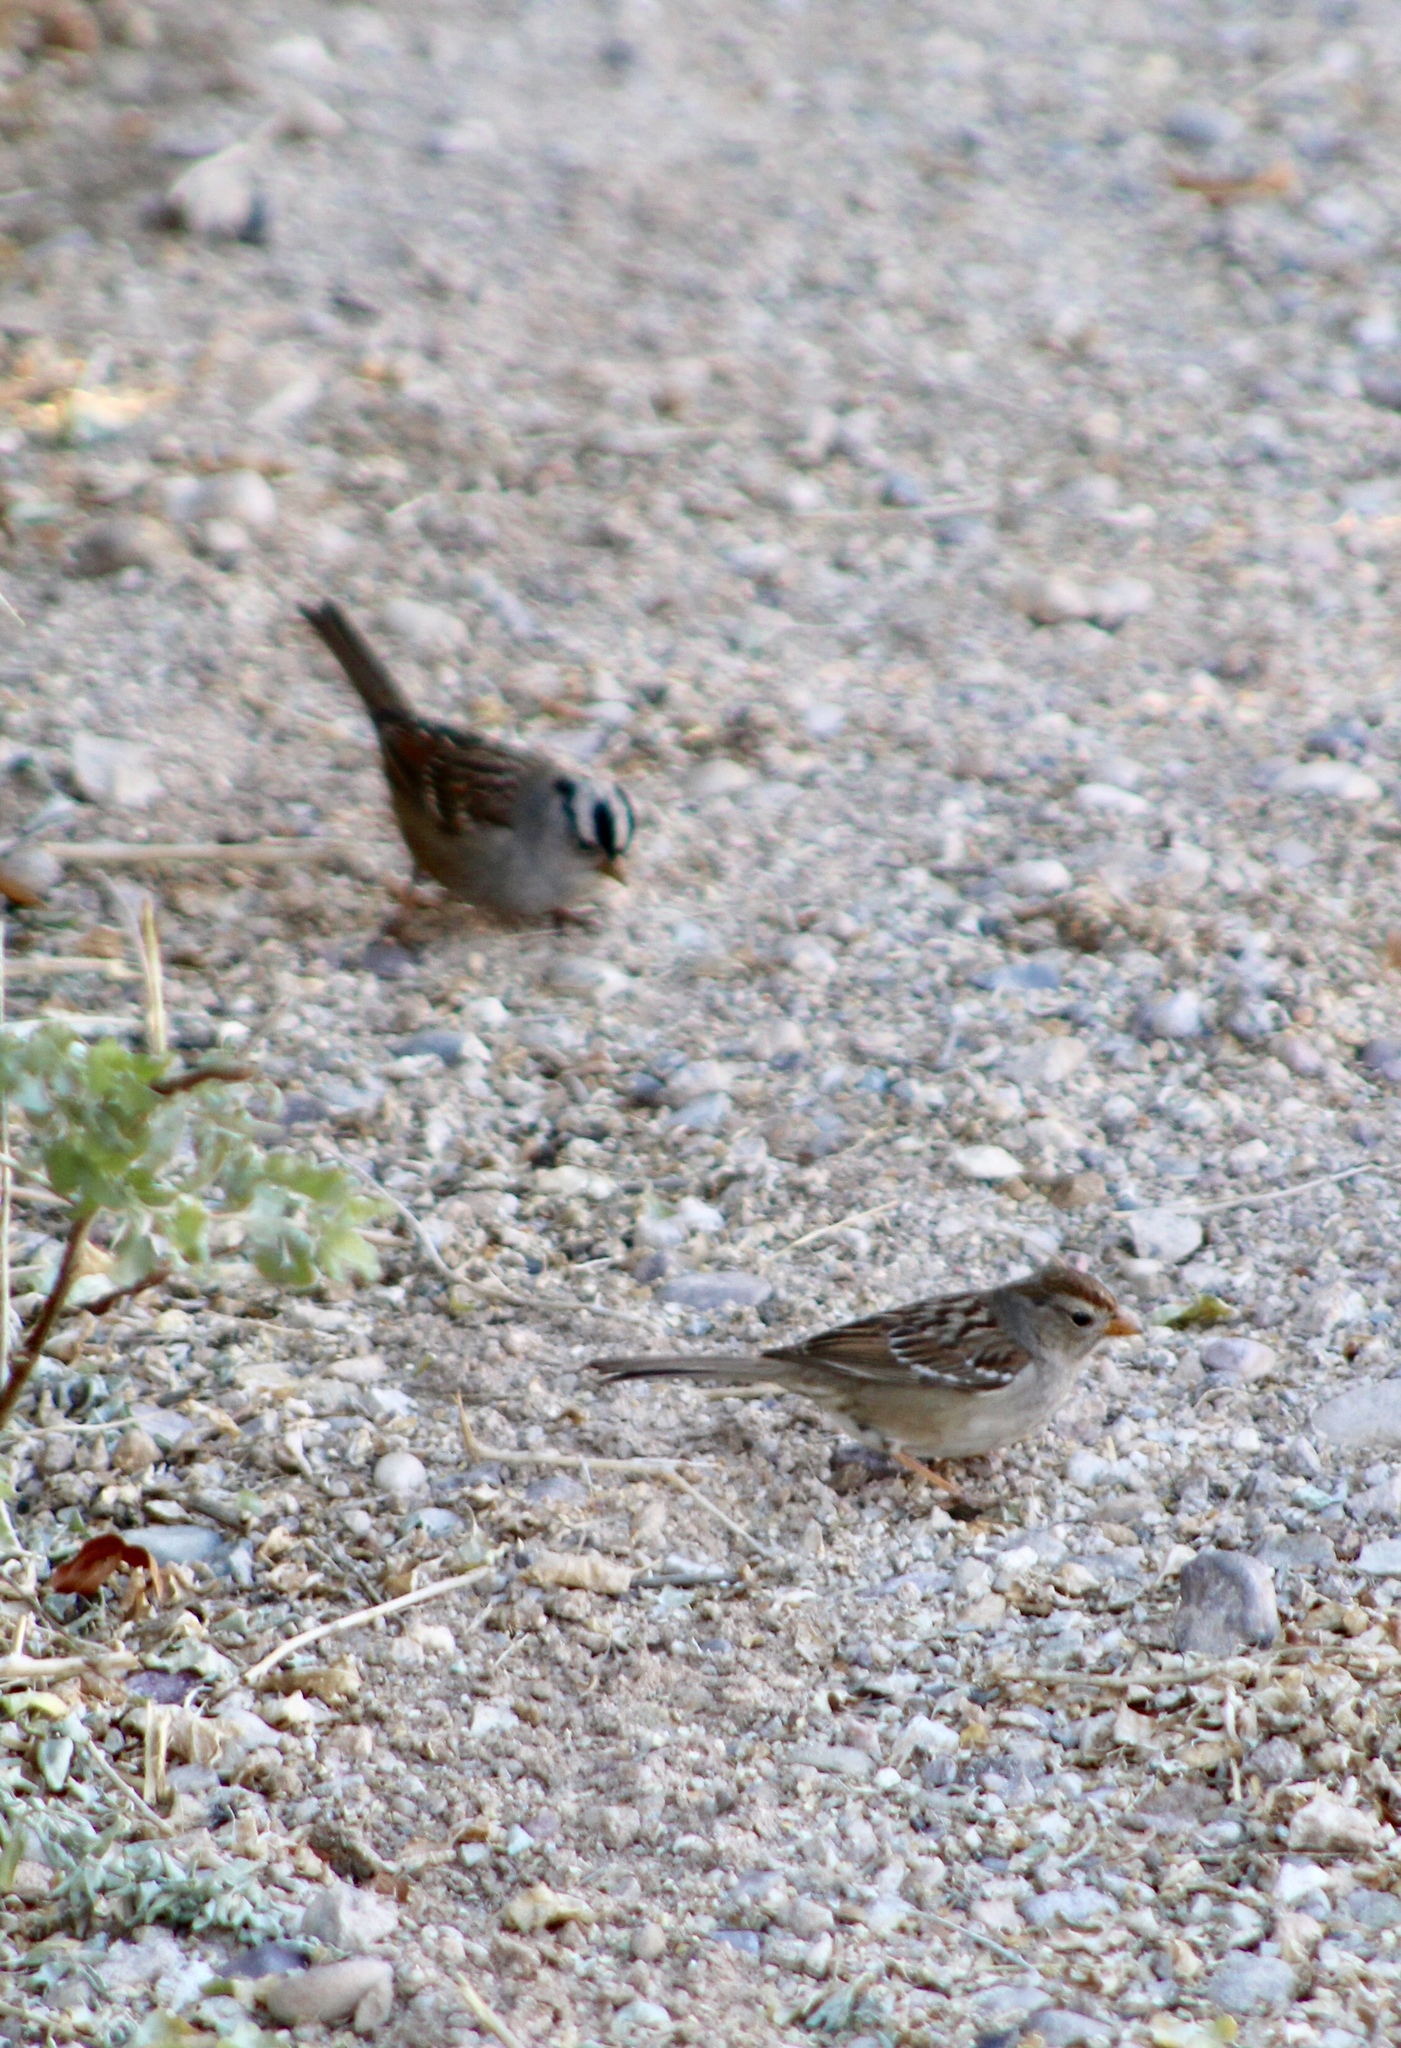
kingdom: Animalia
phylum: Chordata
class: Aves
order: Passeriformes
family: Passerellidae
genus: Zonotrichia
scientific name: Zonotrichia leucophrys
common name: White-crowned sparrow
